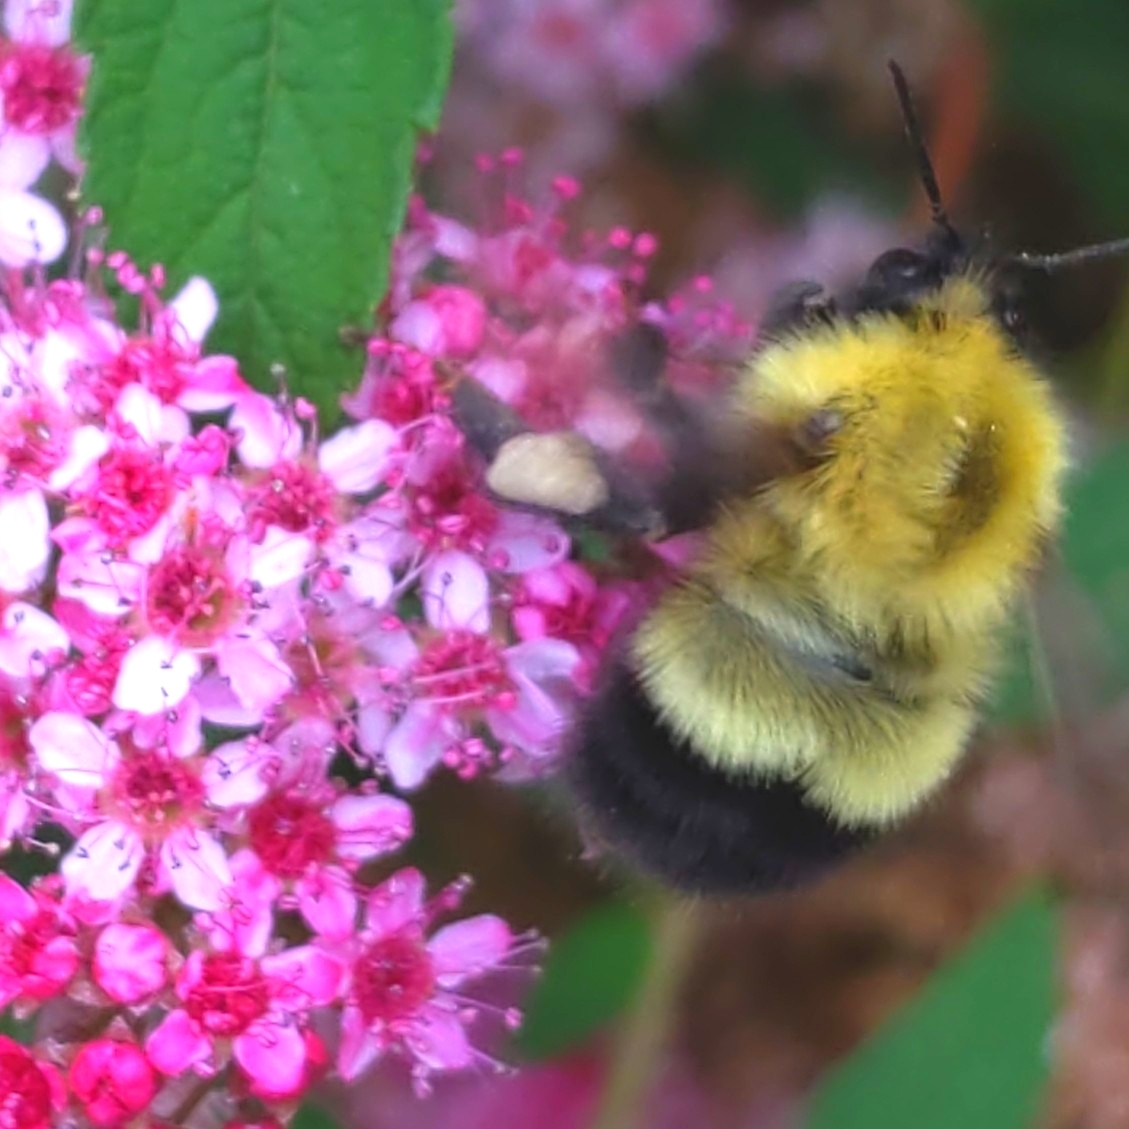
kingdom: Animalia
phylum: Arthropoda
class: Insecta
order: Hymenoptera
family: Apidae
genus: Bombus
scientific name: Bombus perplexus
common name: Confusing bumble bee
